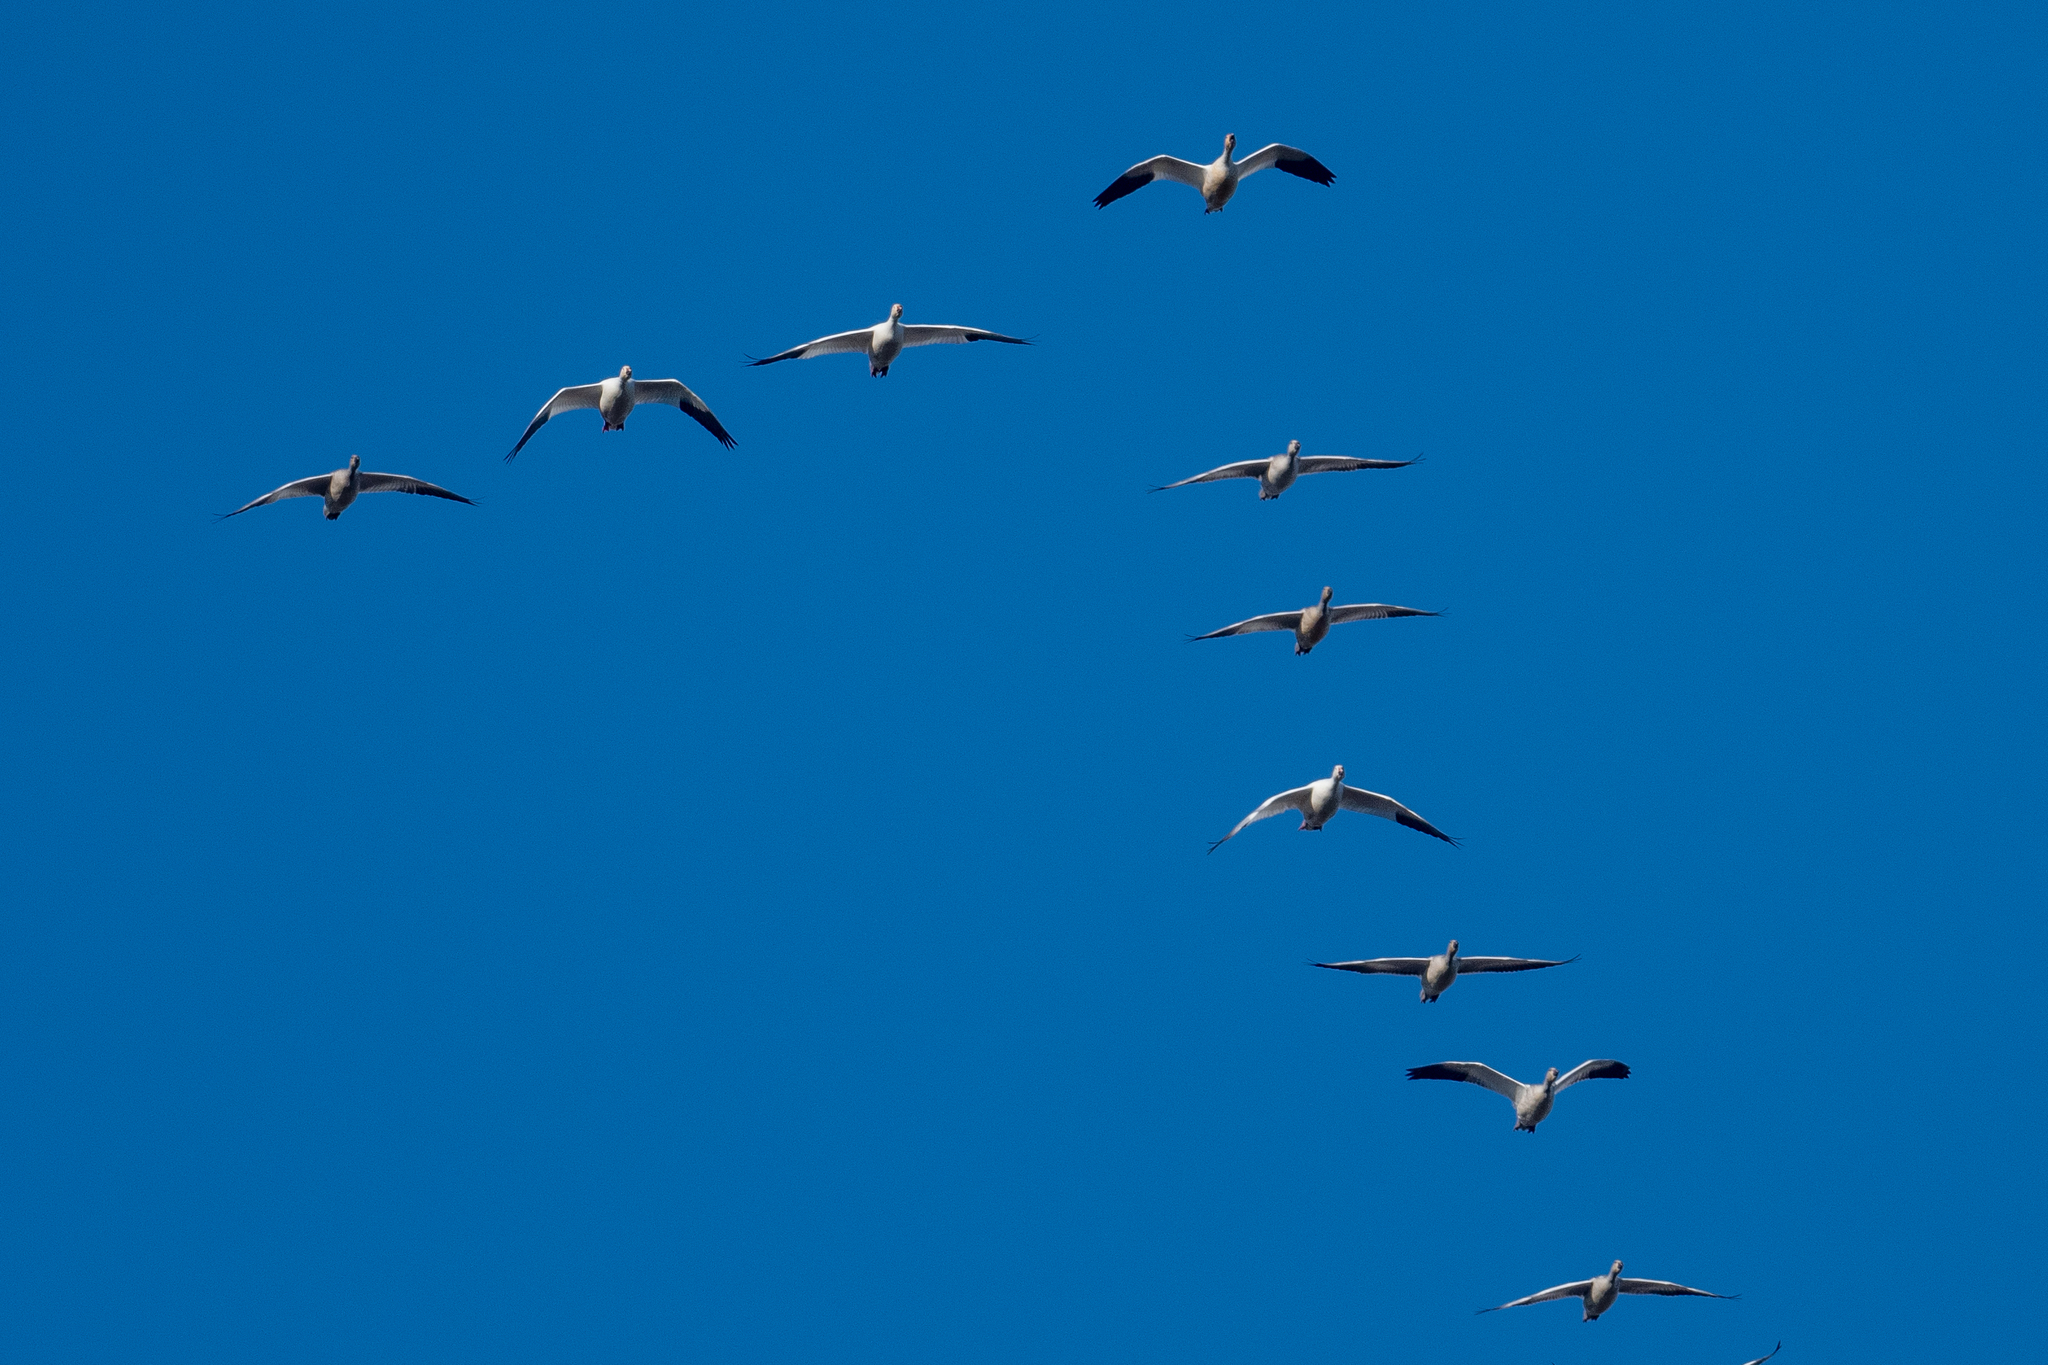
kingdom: Animalia
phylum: Chordata
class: Aves
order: Anseriformes
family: Anatidae
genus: Anser
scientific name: Anser caerulescens
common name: Snow goose
